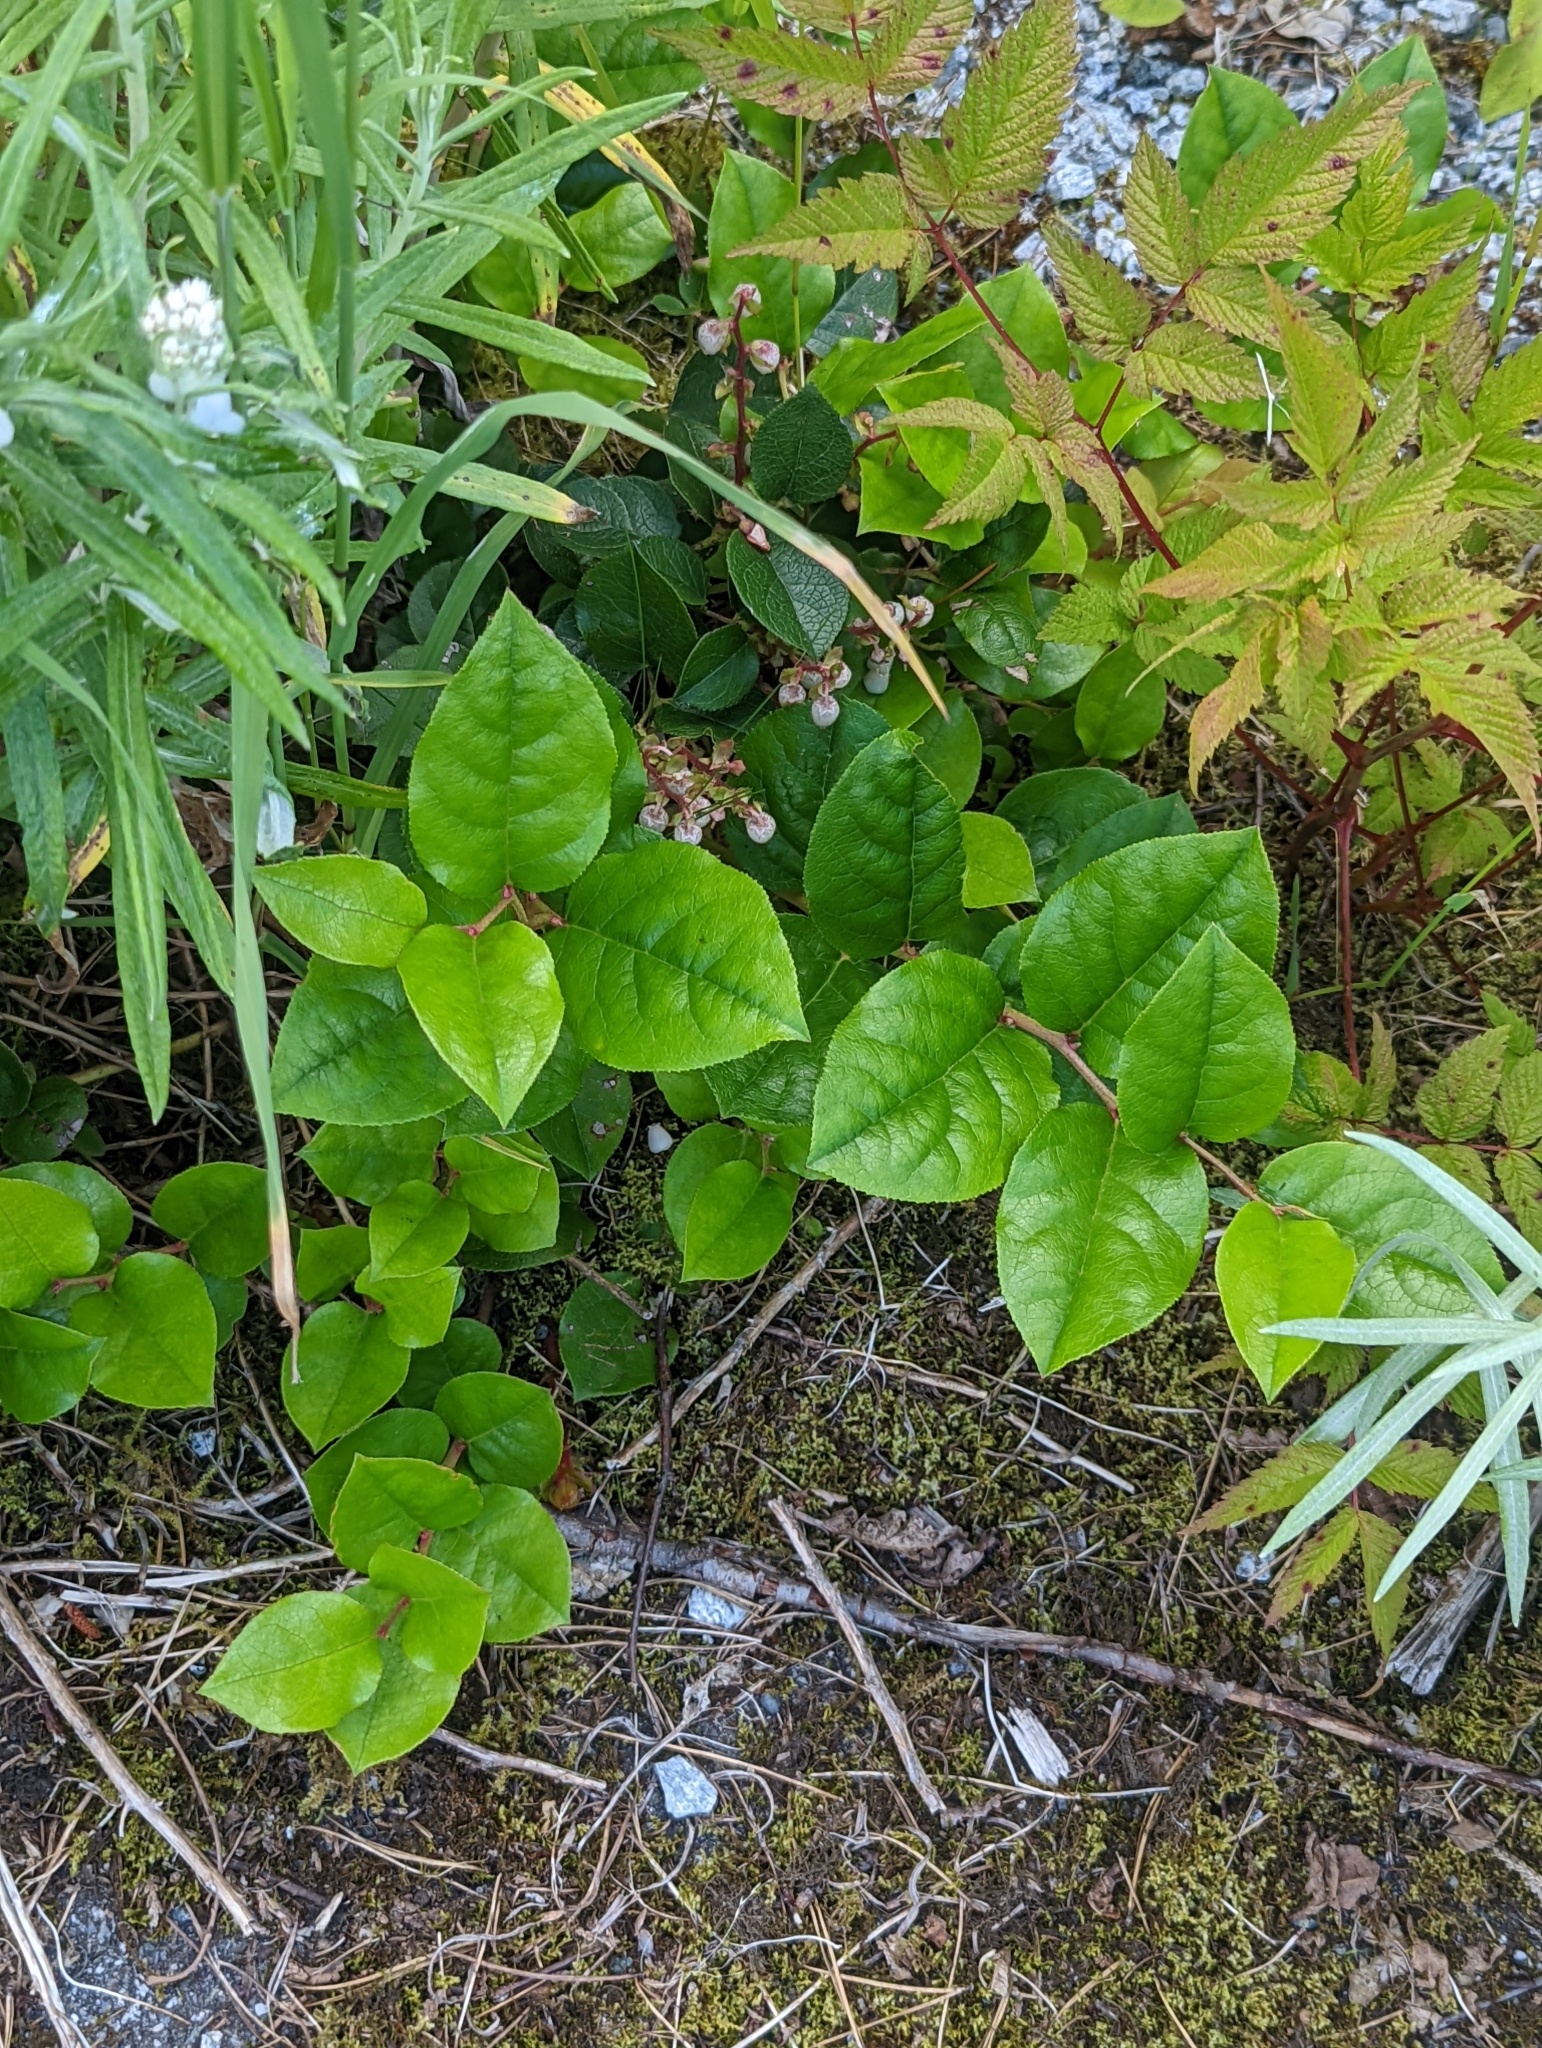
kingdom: Plantae
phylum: Tracheophyta
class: Magnoliopsida
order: Ericales
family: Ericaceae
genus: Gaultheria
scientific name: Gaultheria shallon
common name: Shallon
